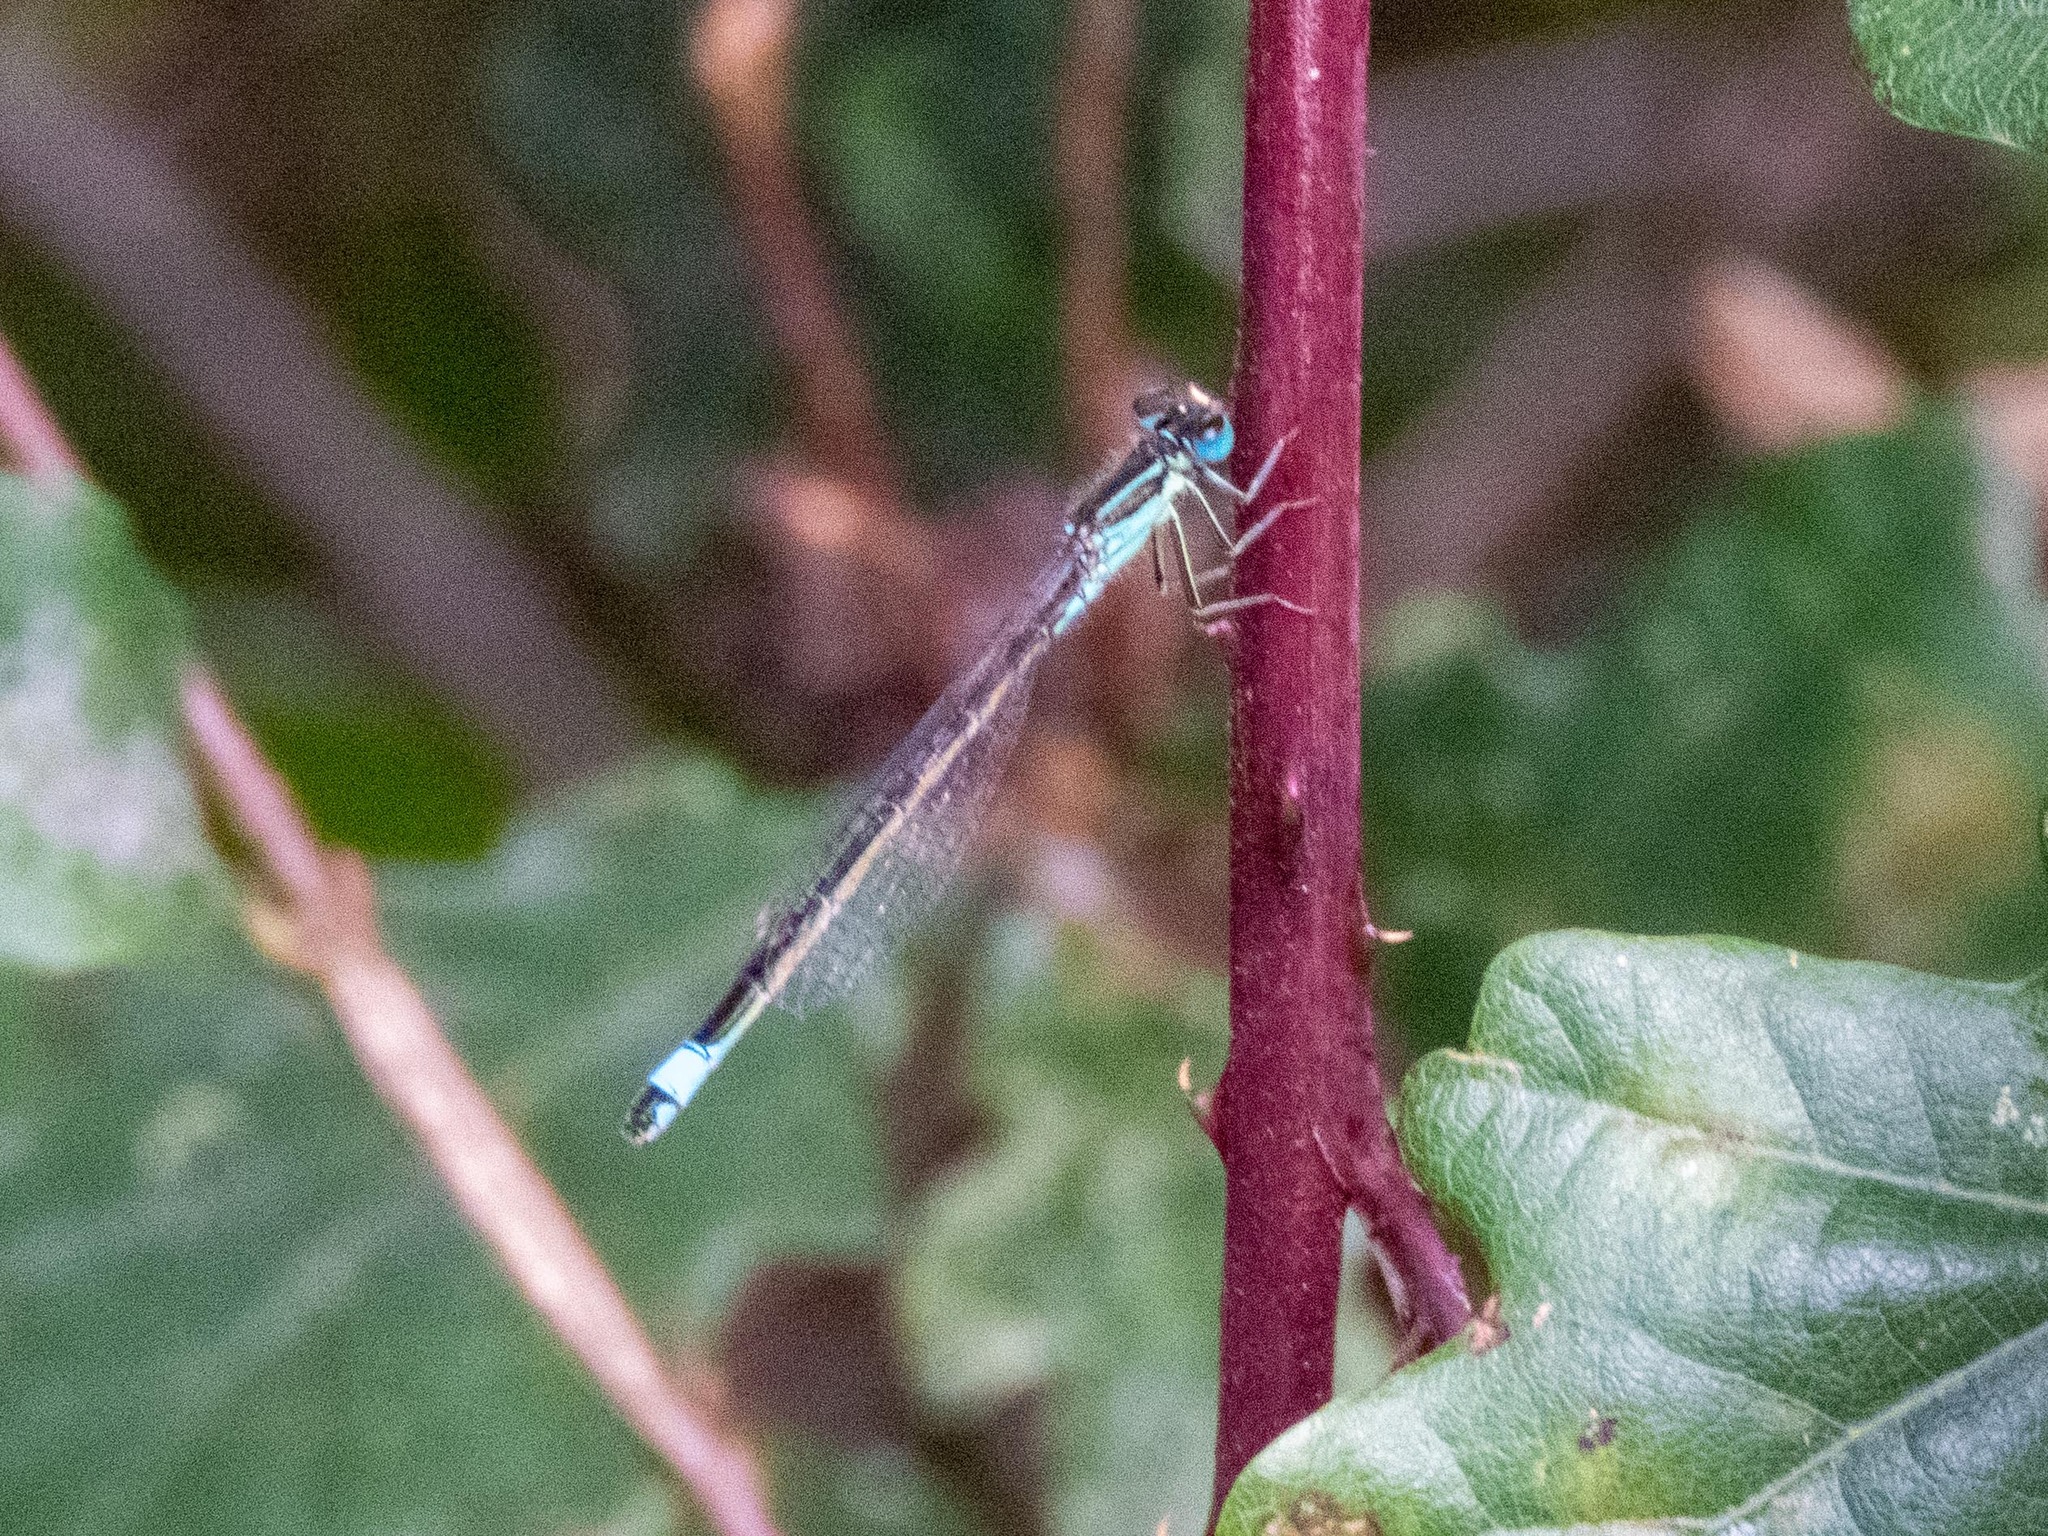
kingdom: Animalia
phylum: Arthropoda
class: Insecta
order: Odonata
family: Coenagrionidae
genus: Ischnura
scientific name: Ischnura graellsii
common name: Iberian bluetail
